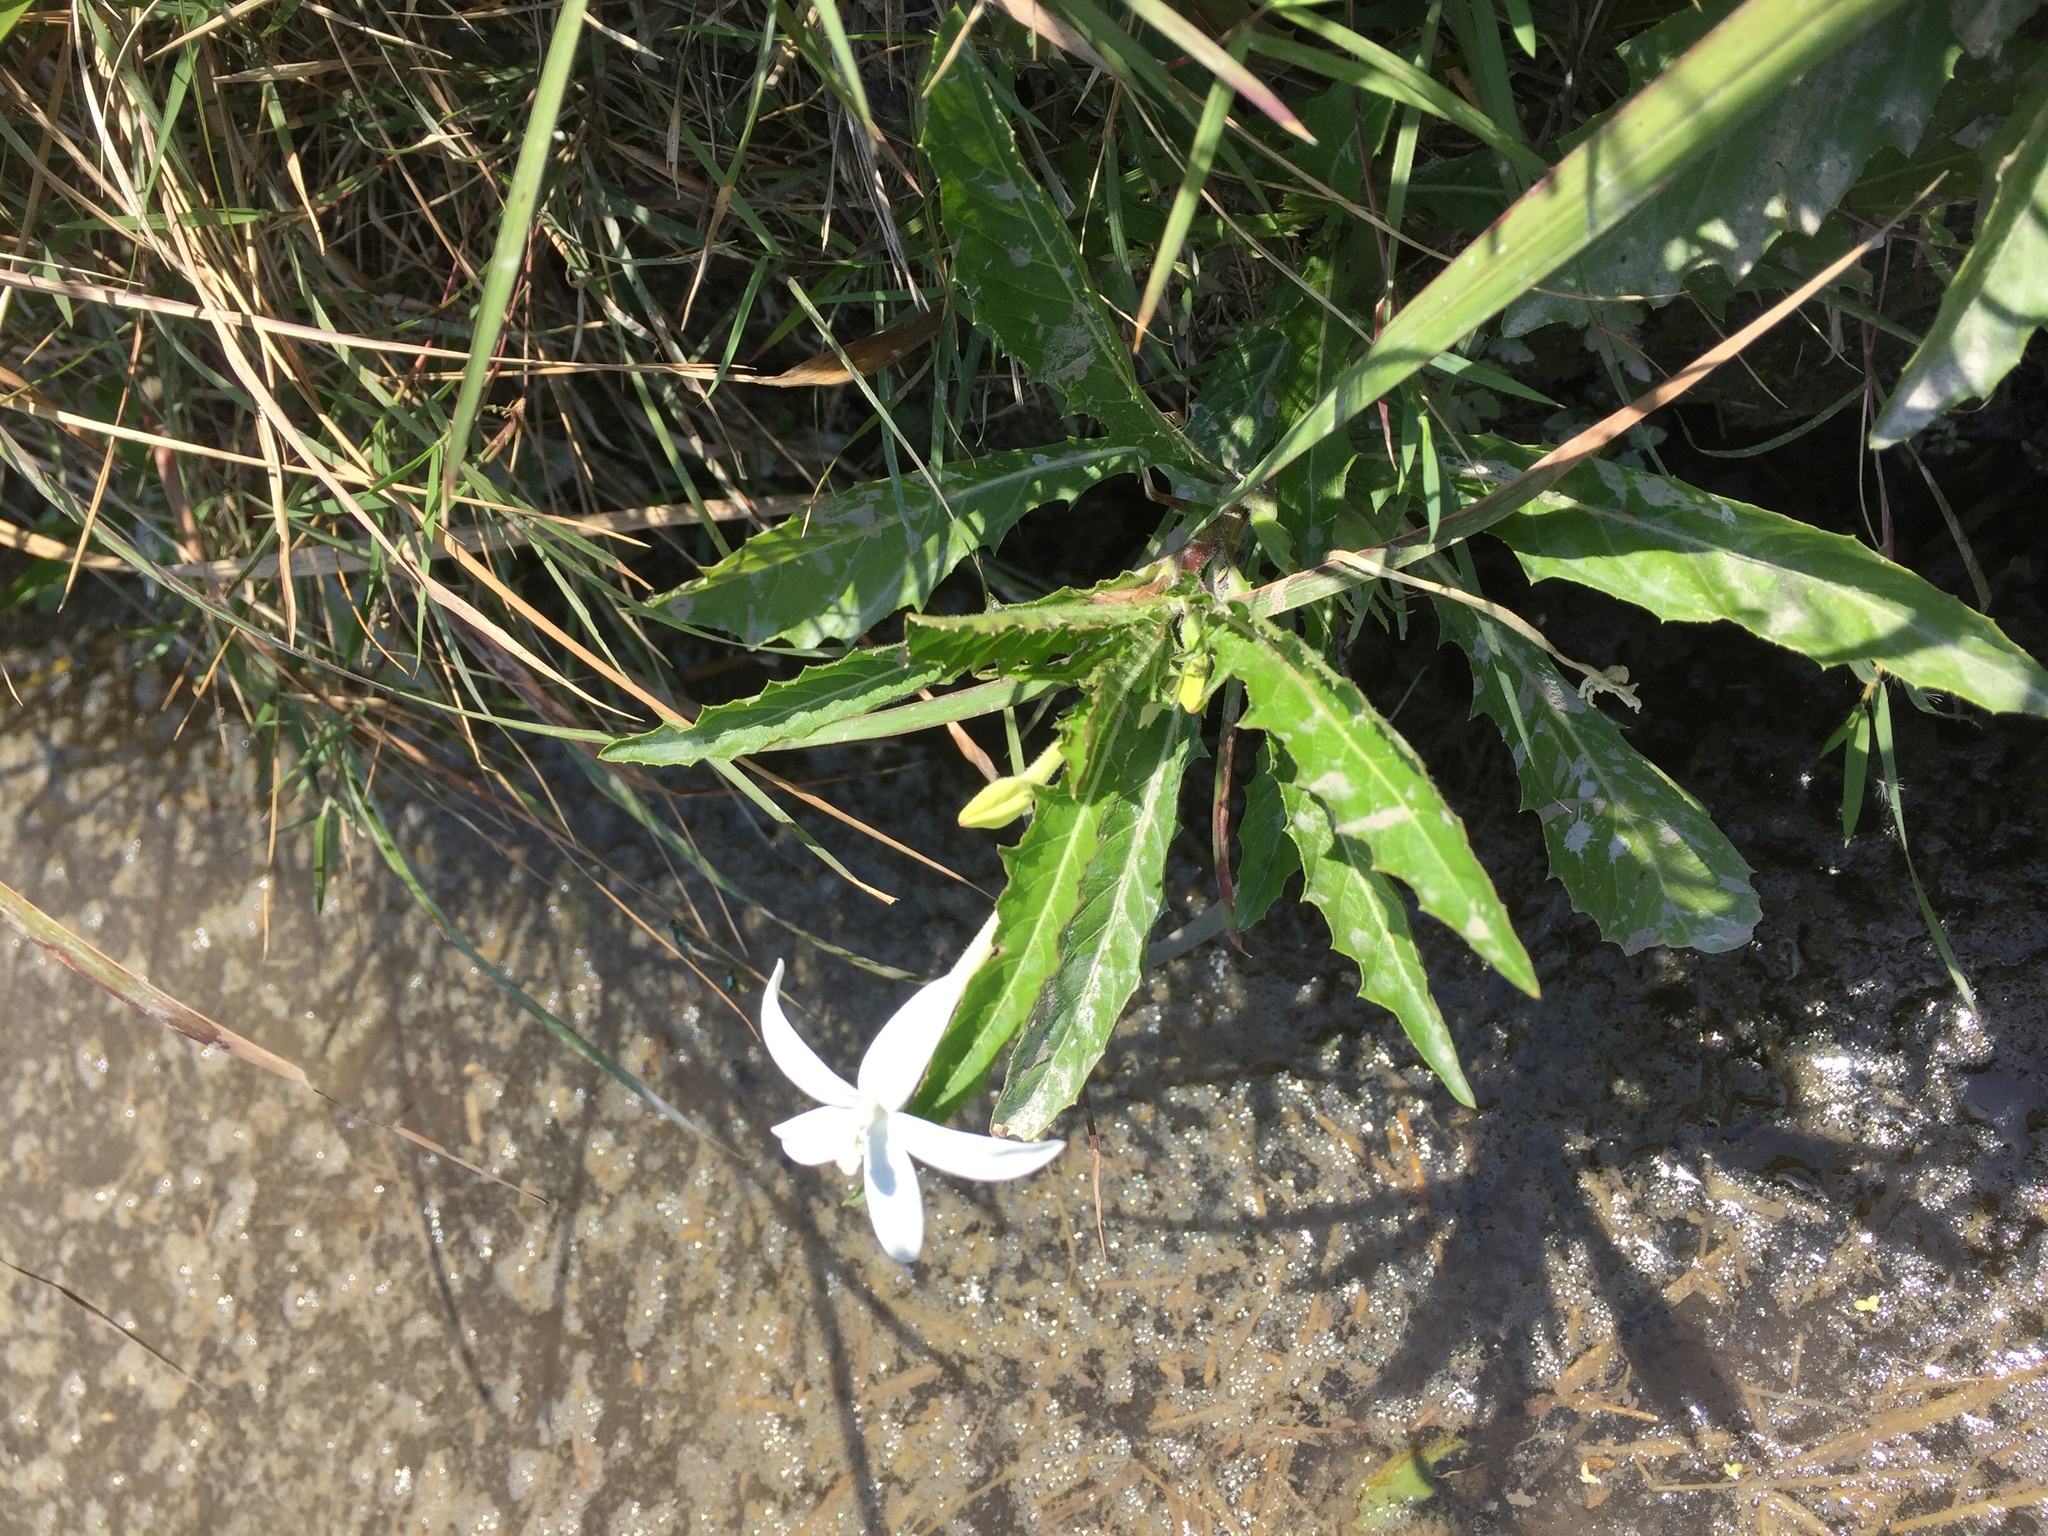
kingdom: Plantae
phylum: Tracheophyta
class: Magnoliopsida
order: Asterales
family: Campanulaceae
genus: Hippobroma
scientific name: Hippobroma longiflora
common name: Madamfate
